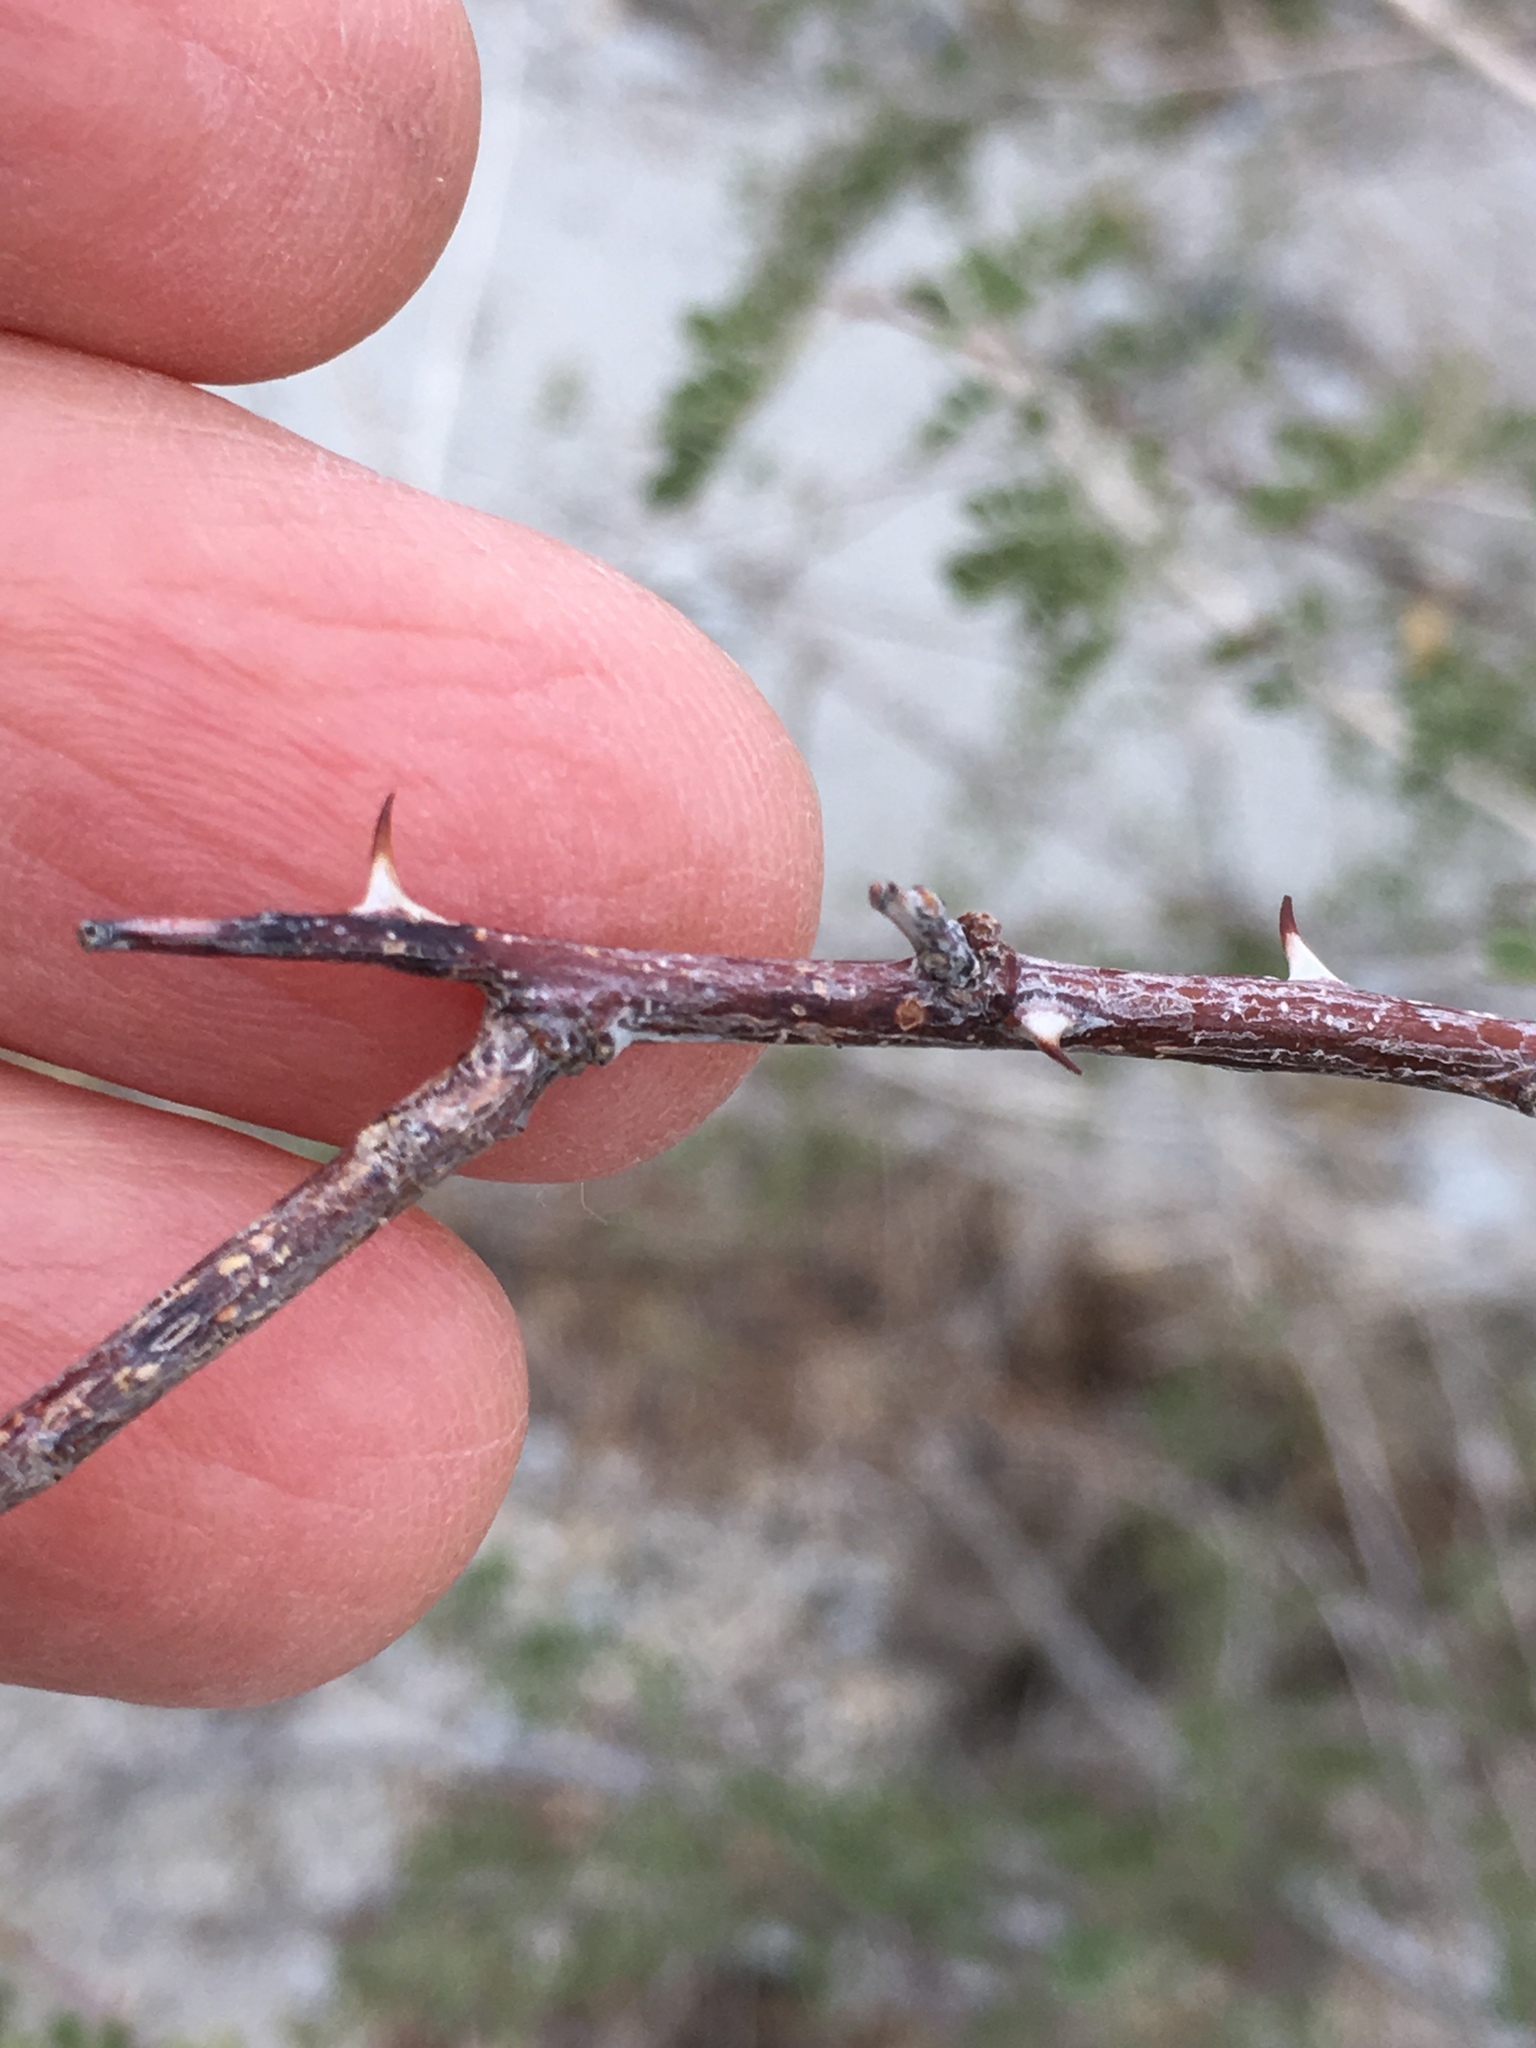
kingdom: Plantae
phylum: Tracheophyta
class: Magnoliopsida
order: Fabales
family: Fabaceae
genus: Senegalia
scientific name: Senegalia greggii
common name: Texas-mimosa
